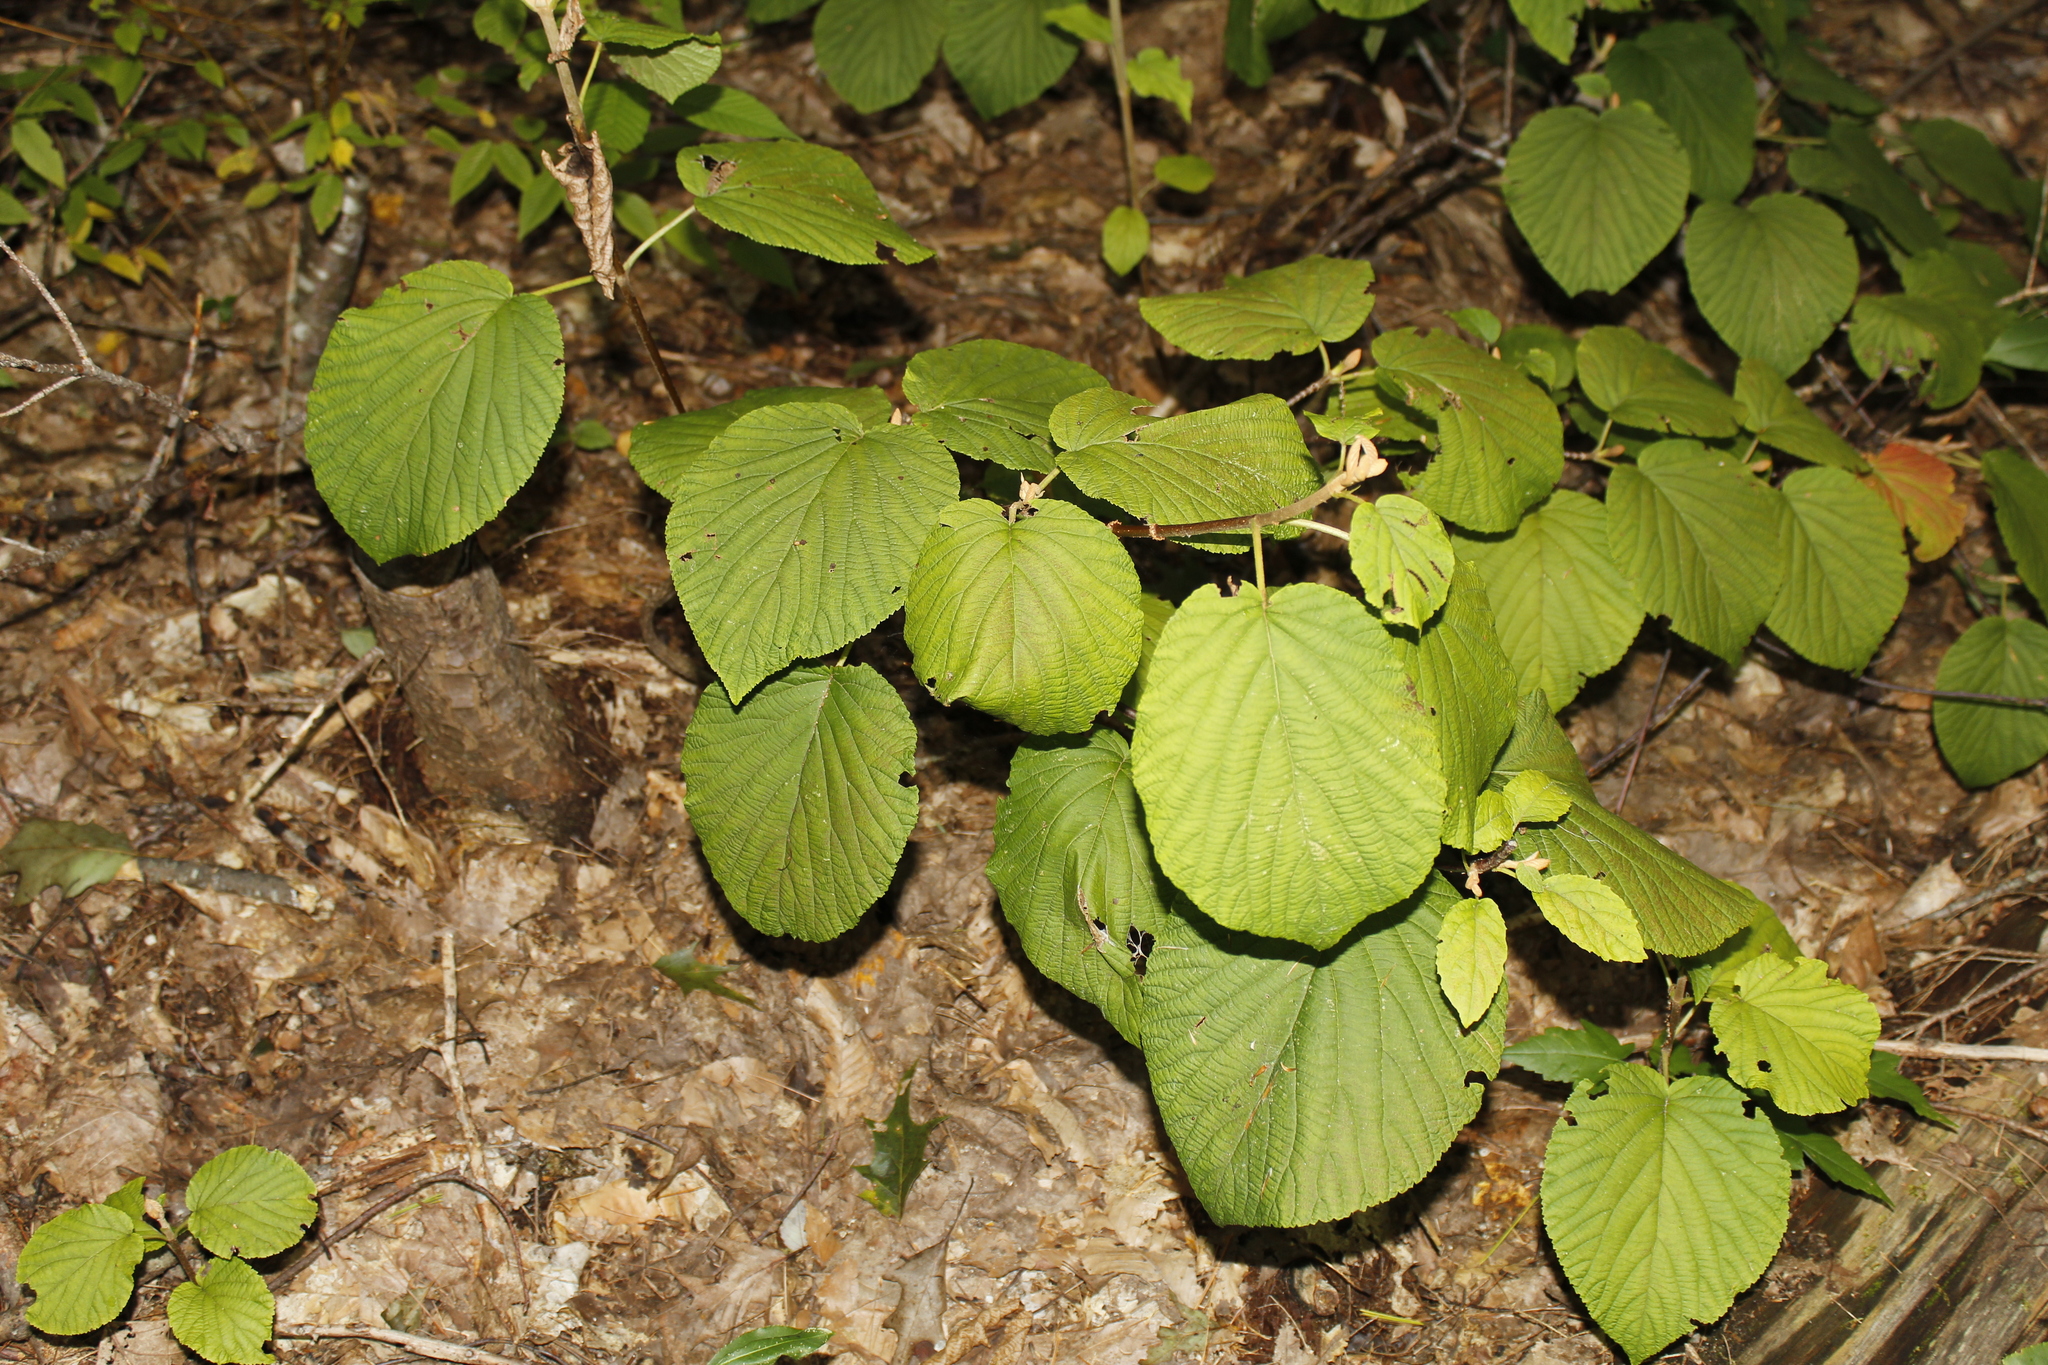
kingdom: Plantae
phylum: Tracheophyta
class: Magnoliopsida
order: Dipsacales
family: Viburnaceae
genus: Viburnum
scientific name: Viburnum lantanoides
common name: Hobblebush
